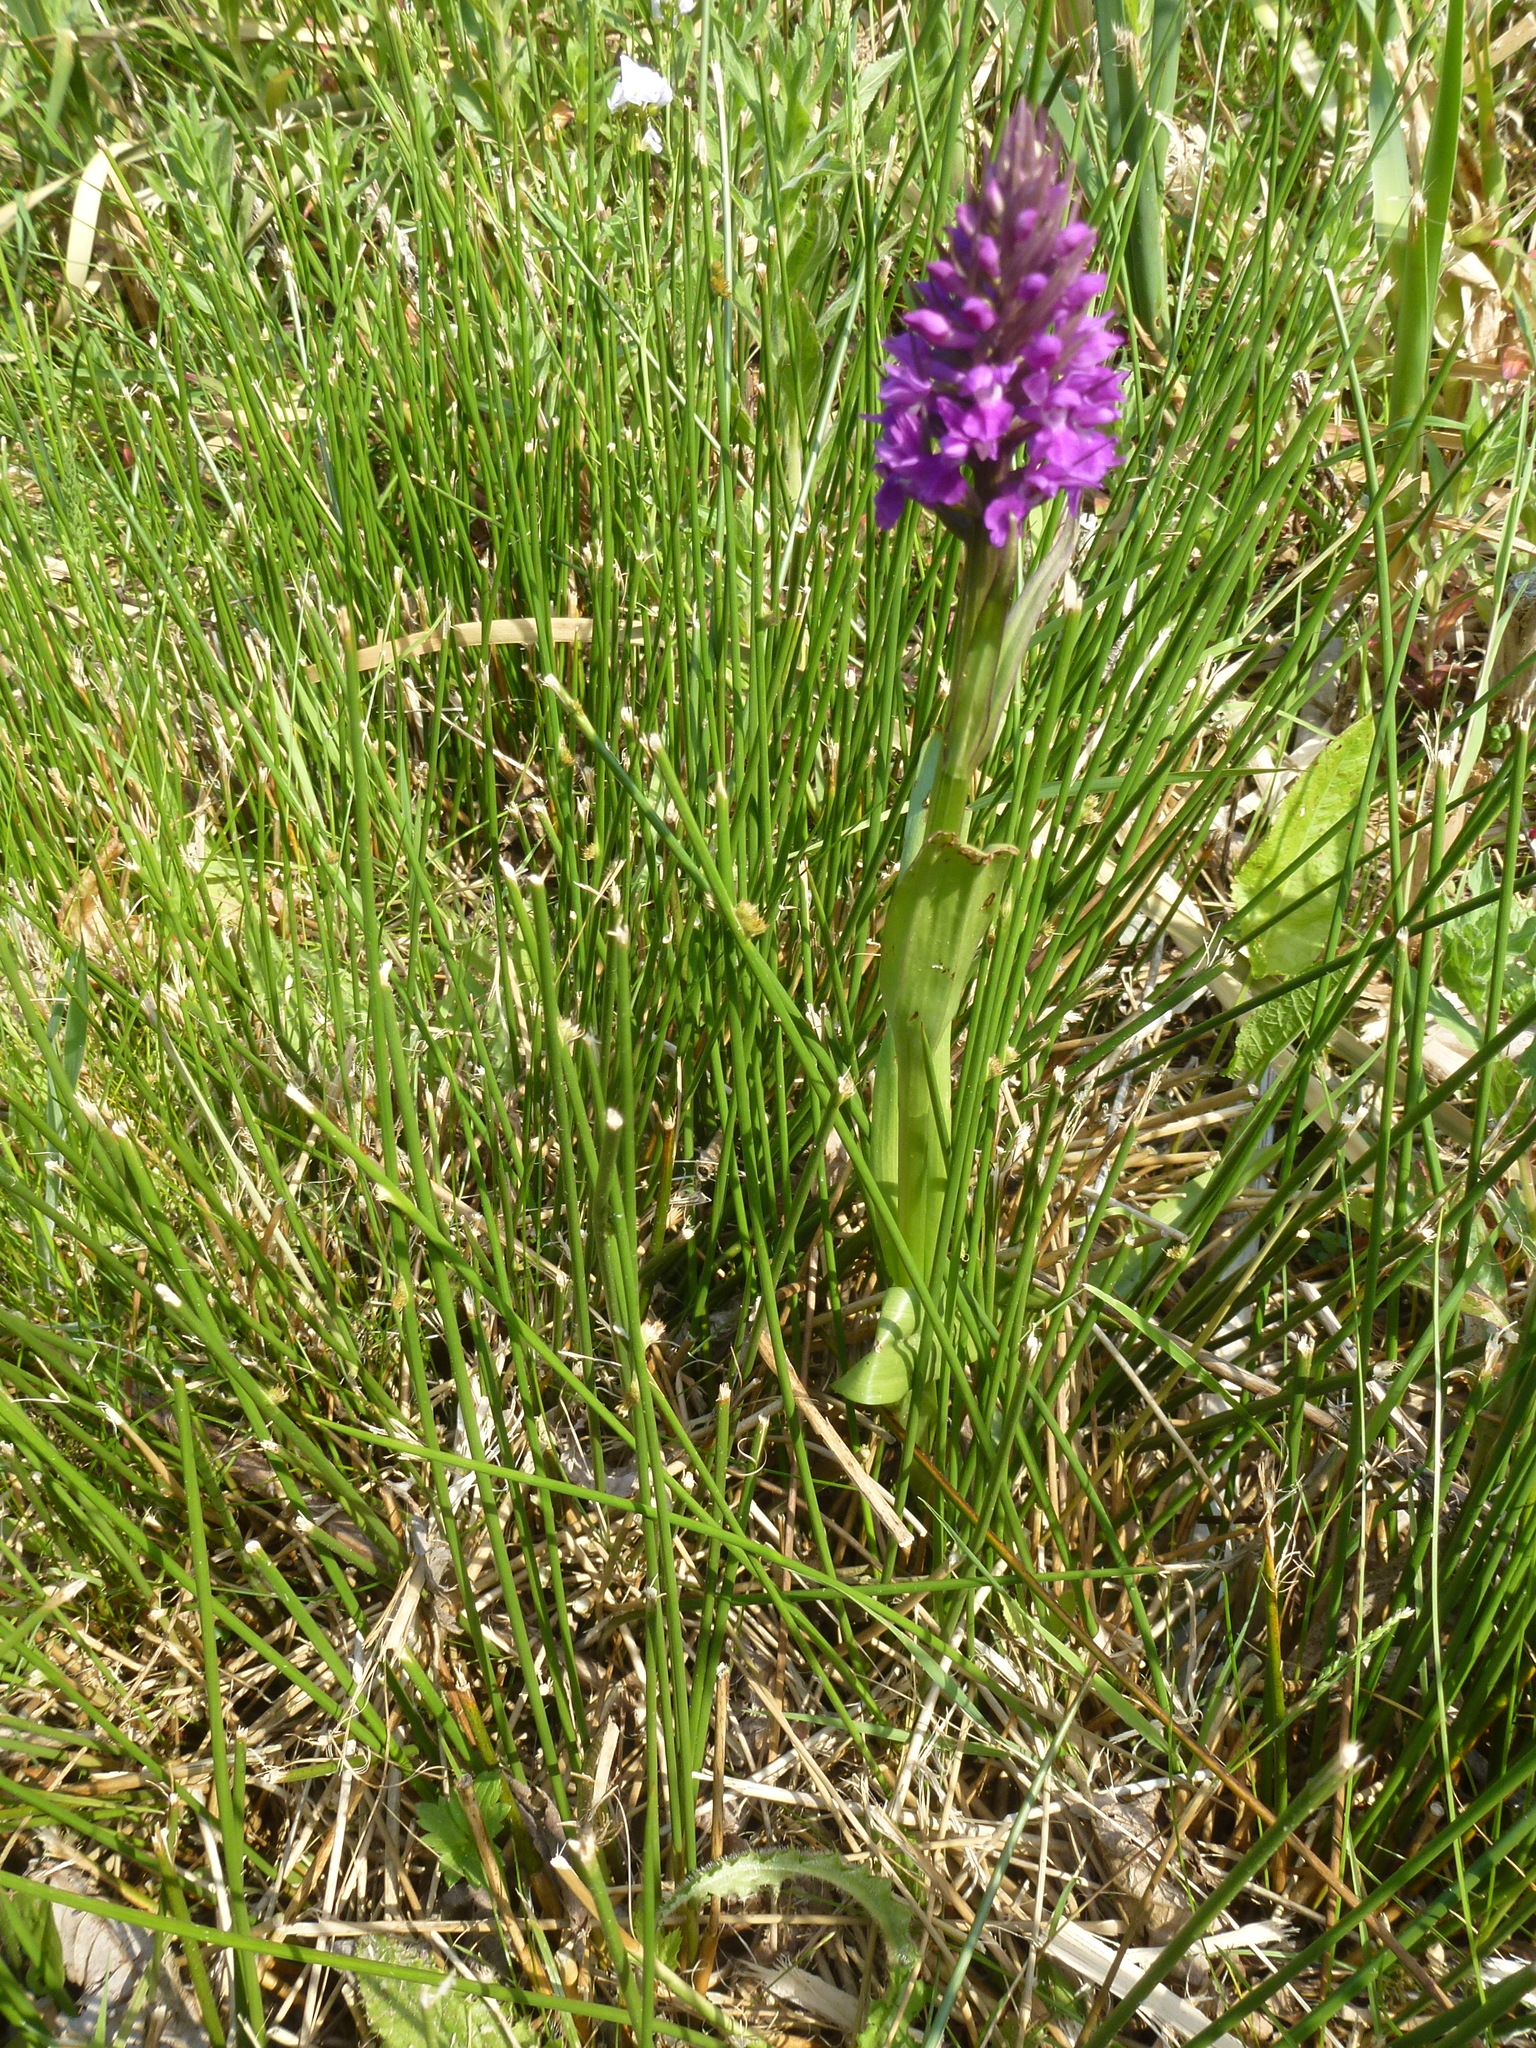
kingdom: Plantae
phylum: Tracheophyta
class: Liliopsida
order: Asparagales
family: Orchidaceae
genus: Dactylorhiza
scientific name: Dactylorhiza majalis
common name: Marsh orchid
